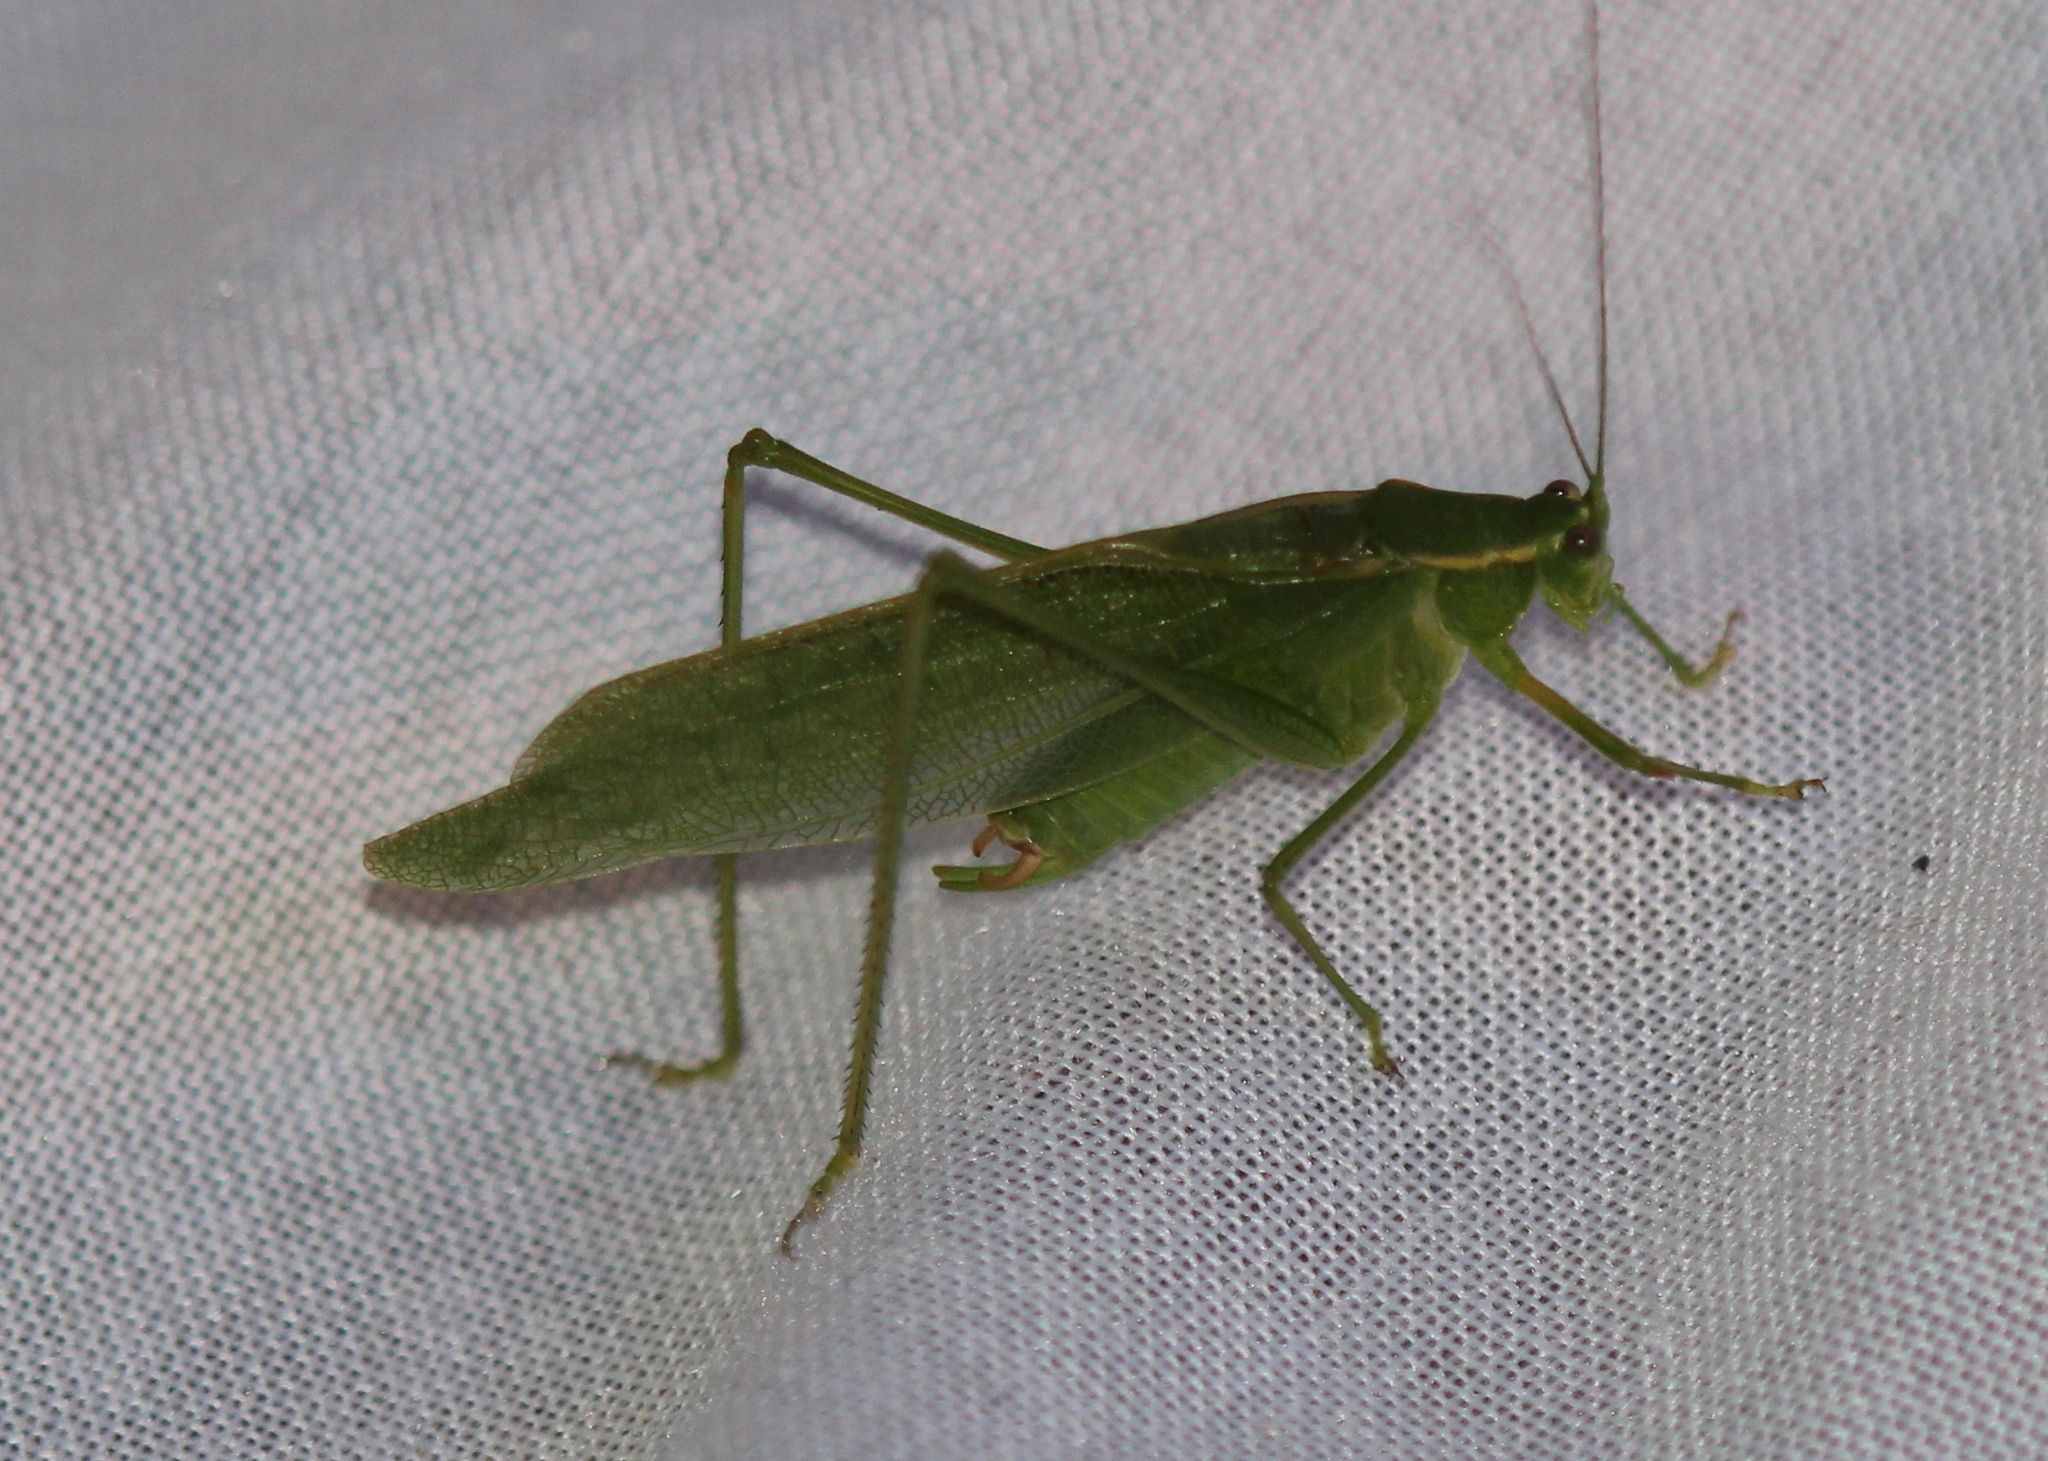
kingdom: Animalia
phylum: Arthropoda
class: Insecta
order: Orthoptera
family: Tettigoniidae
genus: Scudderia
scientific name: Scudderia septentrionalis
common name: Northern bush-katydid
